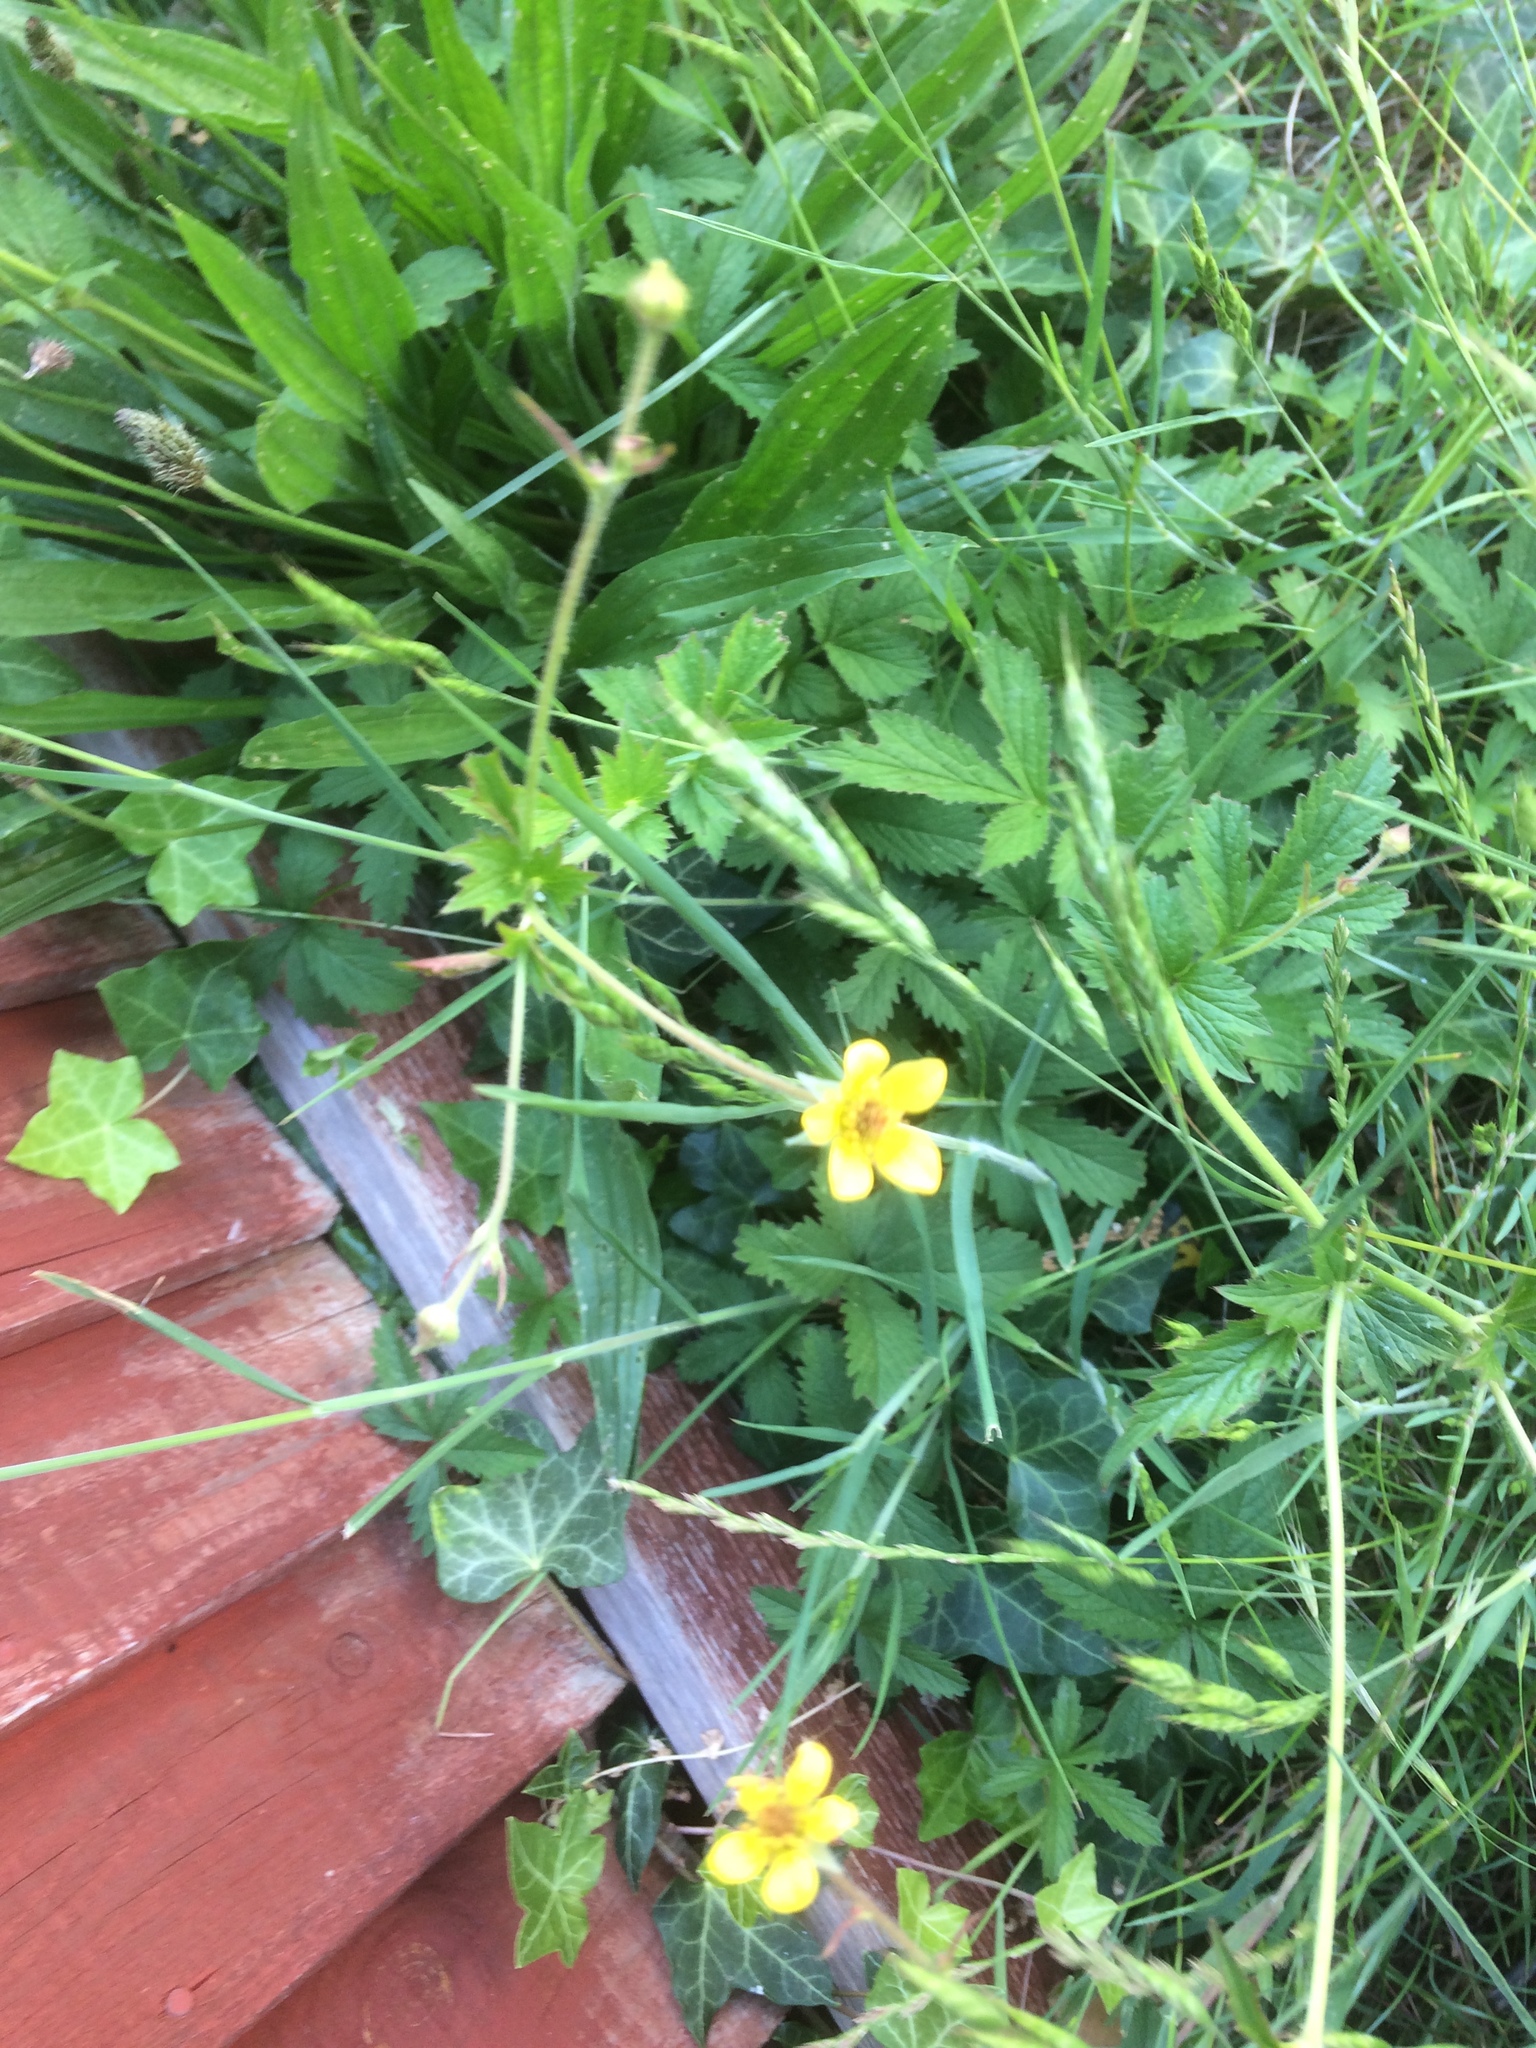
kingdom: Plantae
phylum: Tracheophyta
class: Magnoliopsida
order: Rosales
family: Rosaceae
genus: Geum
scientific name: Geum urbanum
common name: Wood avens
